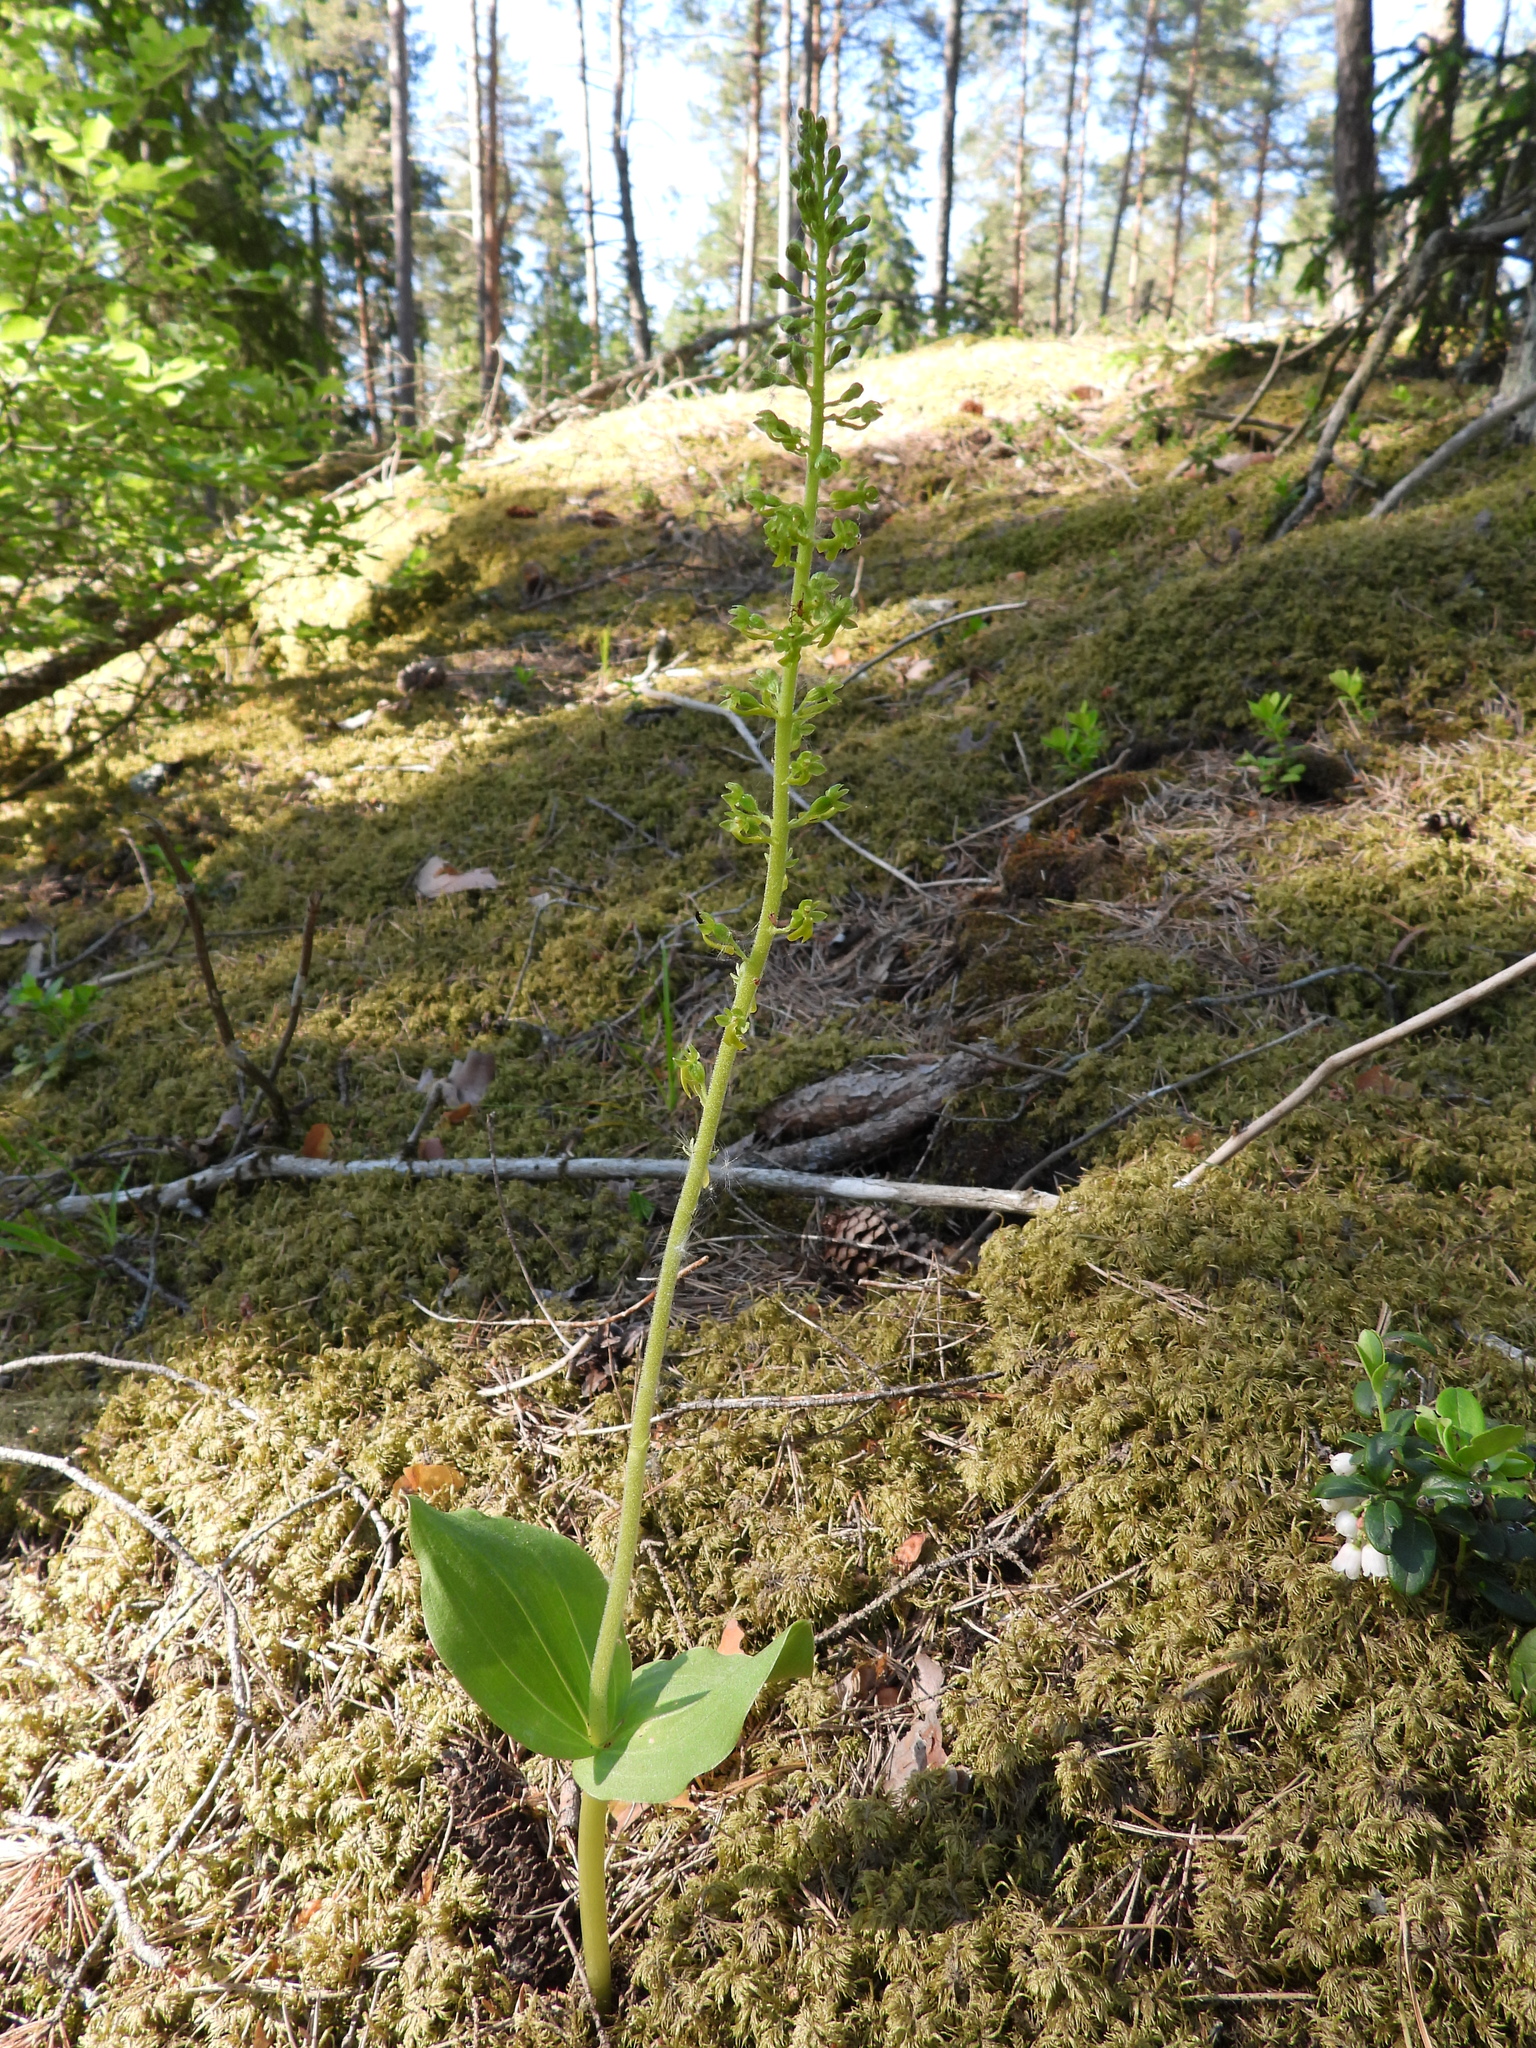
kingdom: Plantae
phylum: Tracheophyta
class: Liliopsida
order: Asparagales
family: Orchidaceae
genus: Neottia
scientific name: Neottia ovata
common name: Common twayblade
